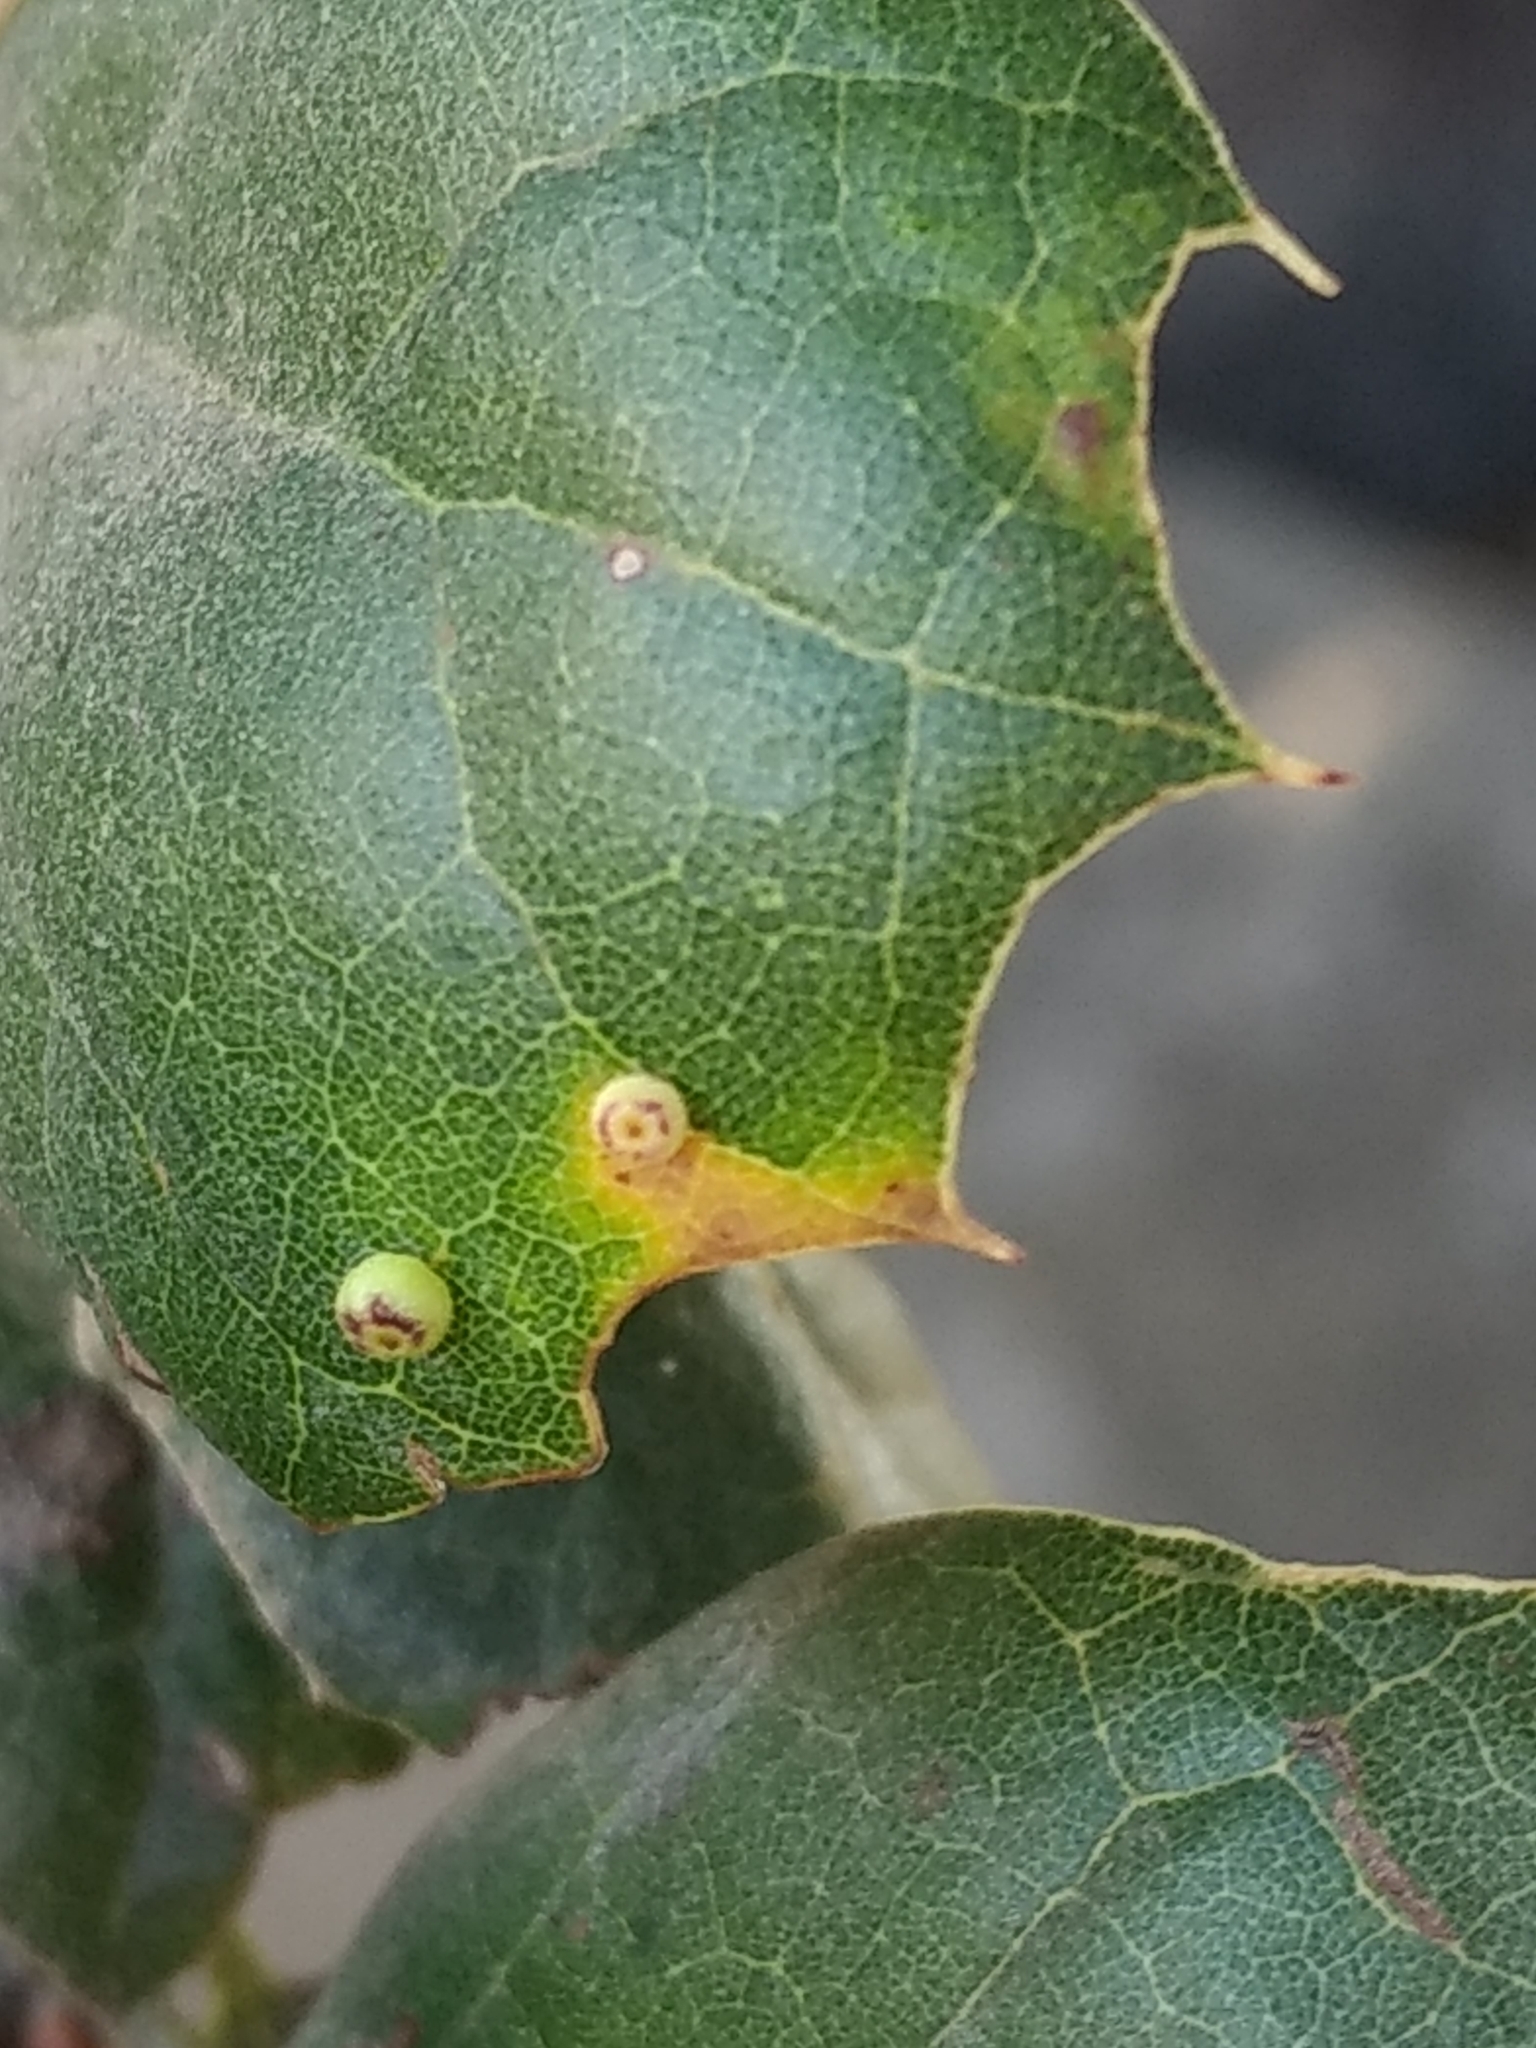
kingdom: Animalia
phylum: Arthropoda
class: Insecta
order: Hymenoptera
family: Cynipidae
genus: Dryocosmus
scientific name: Dryocosmus
